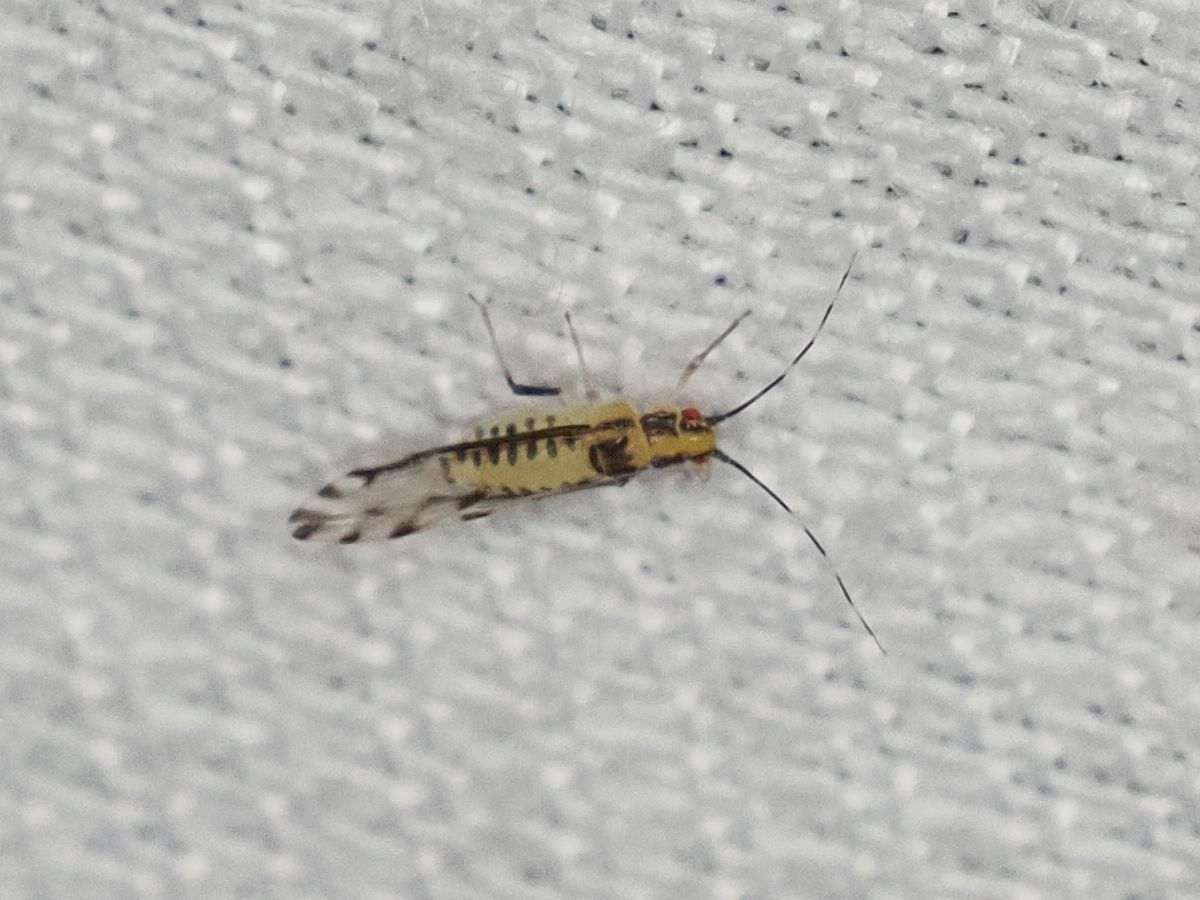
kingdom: Animalia
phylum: Arthropoda
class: Insecta
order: Hemiptera
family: Aphididae
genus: Eucallipterus
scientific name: Eucallipterus tiliae
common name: Aphid
